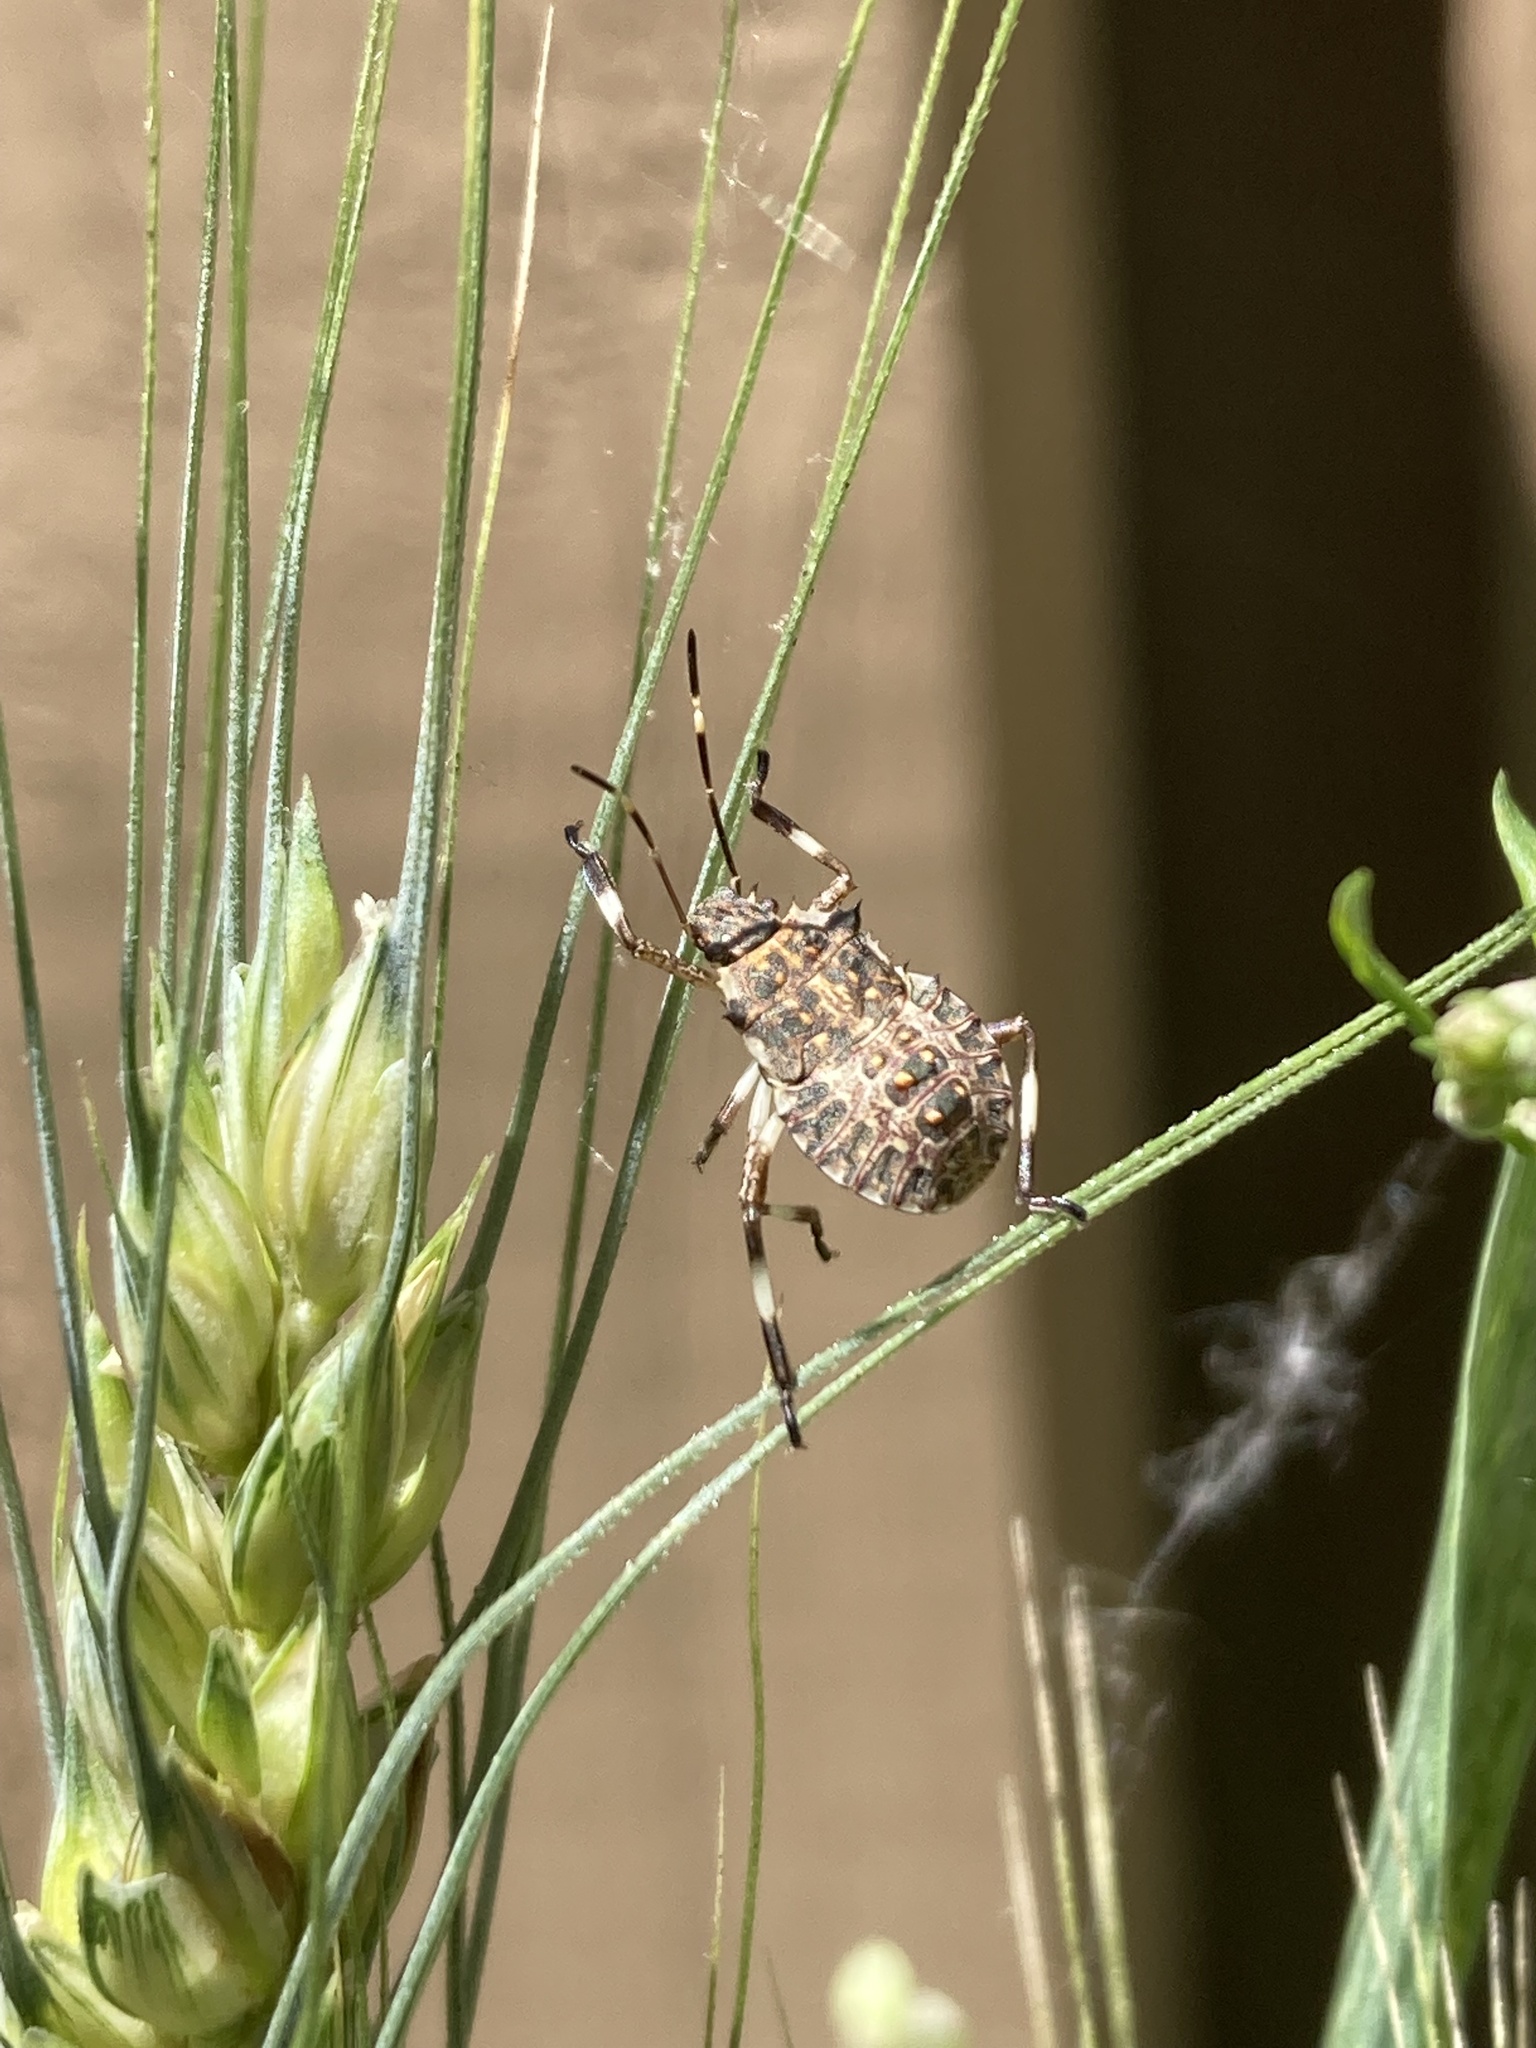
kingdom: Animalia
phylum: Arthropoda
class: Insecta
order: Hemiptera
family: Pentatomidae
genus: Halyomorpha
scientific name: Halyomorpha halys
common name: Brown marmorated stink bug
